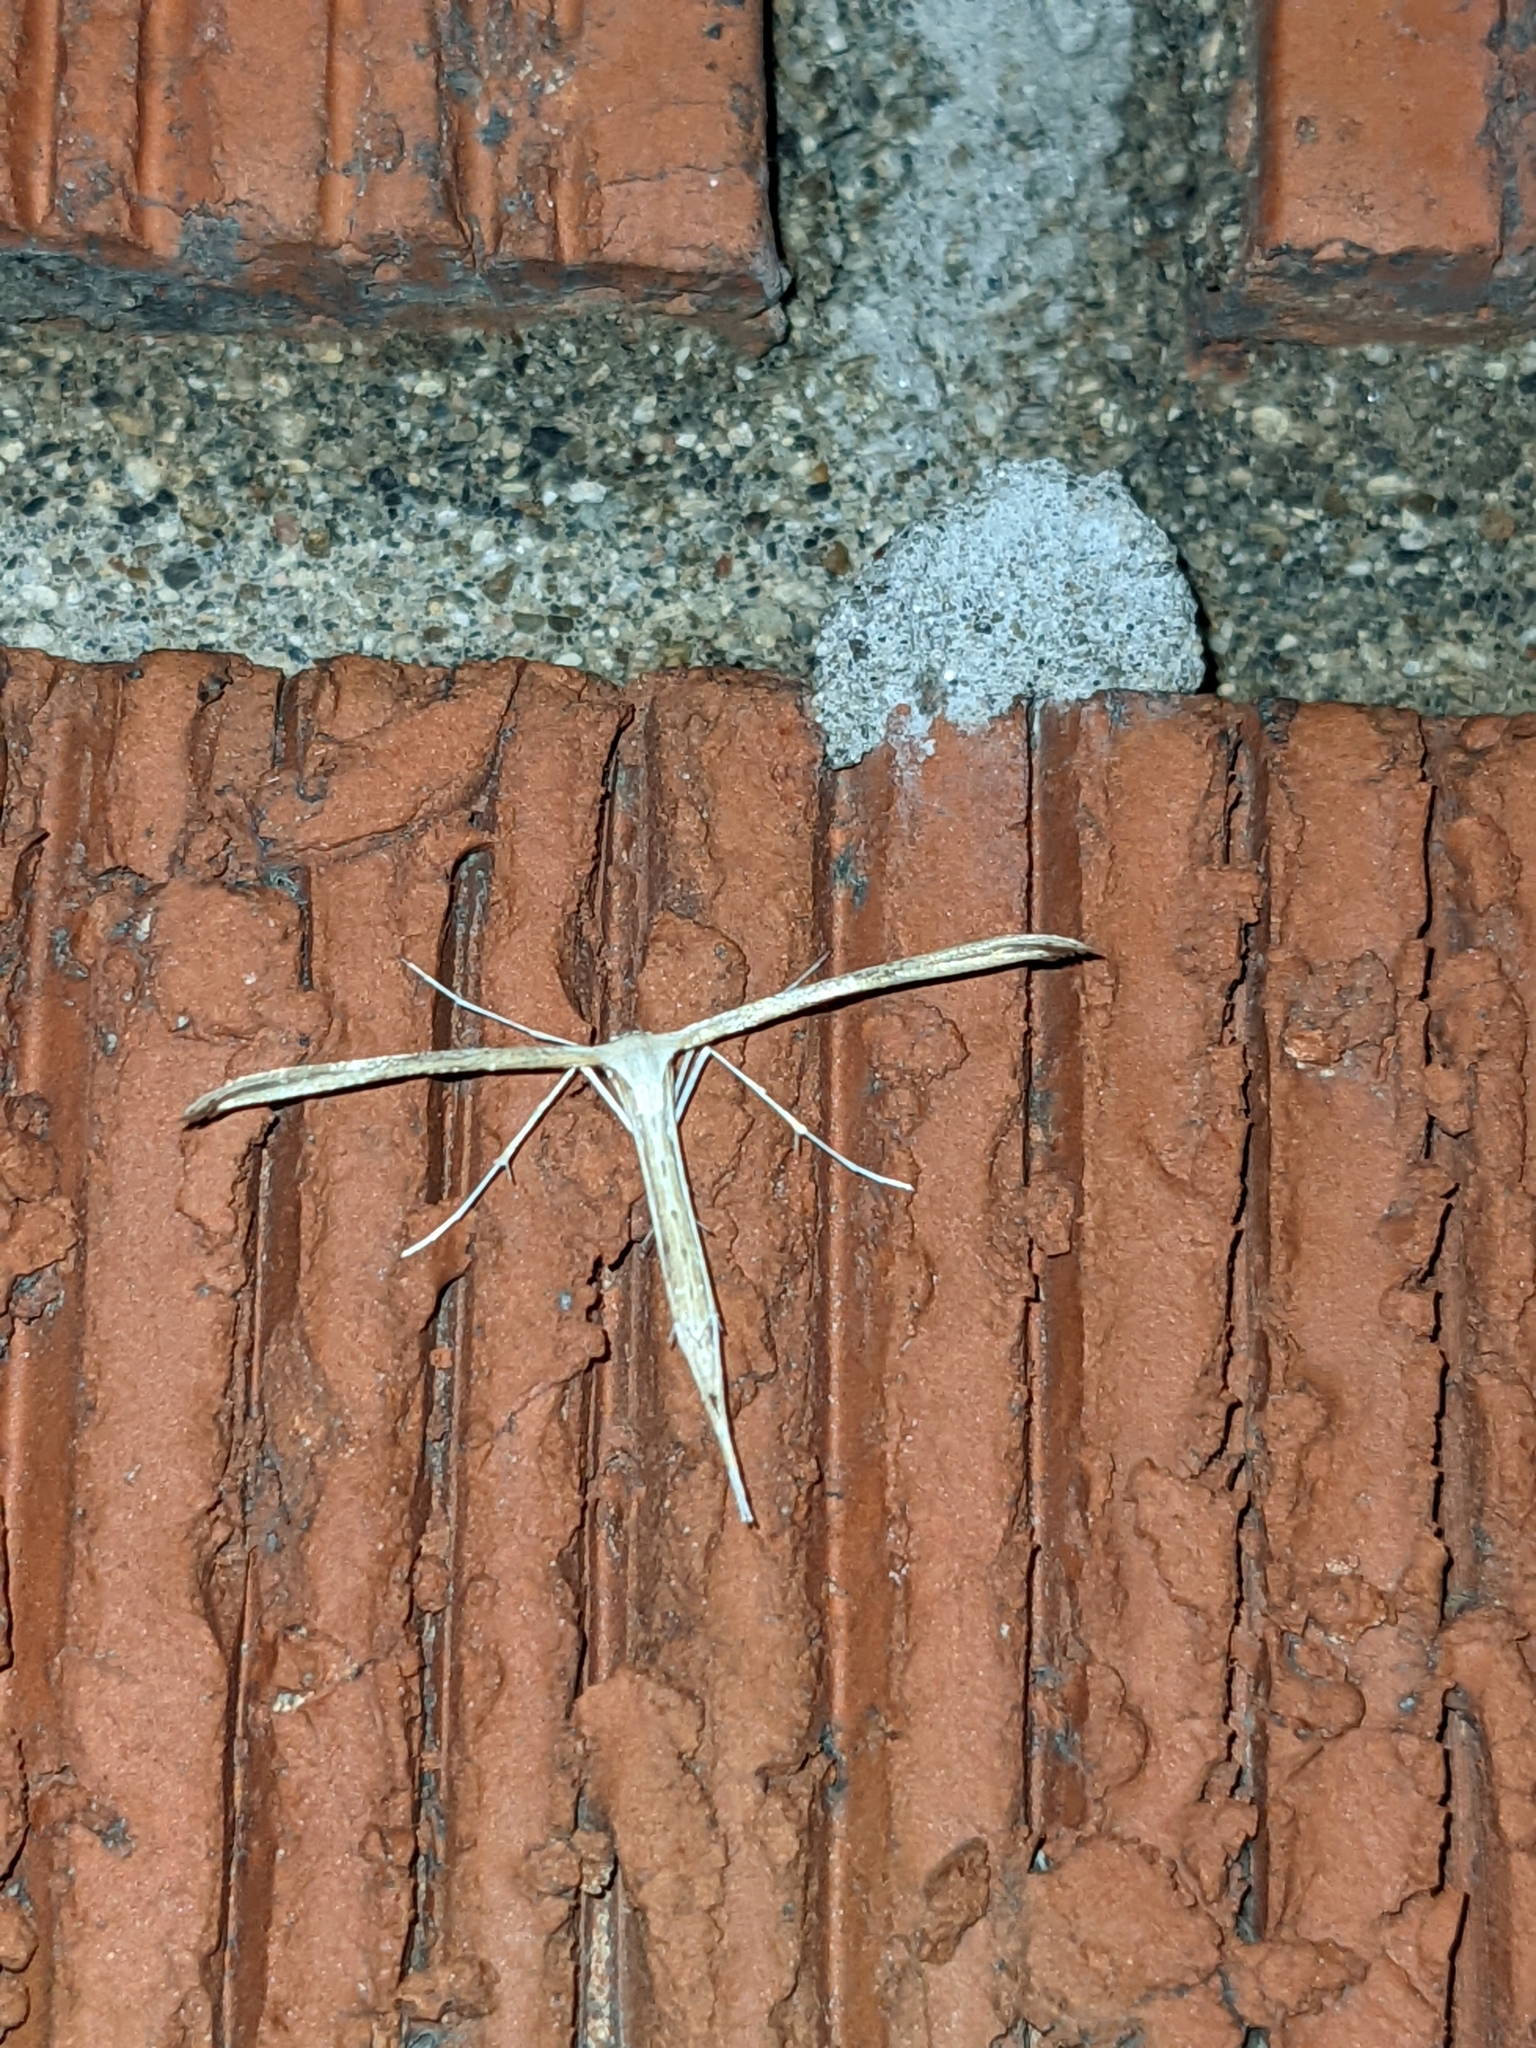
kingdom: Animalia
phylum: Arthropoda
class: Insecta
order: Lepidoptera
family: Pterophoridae
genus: Emmelina
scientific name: Emmelina monodactyla
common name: Common plume
